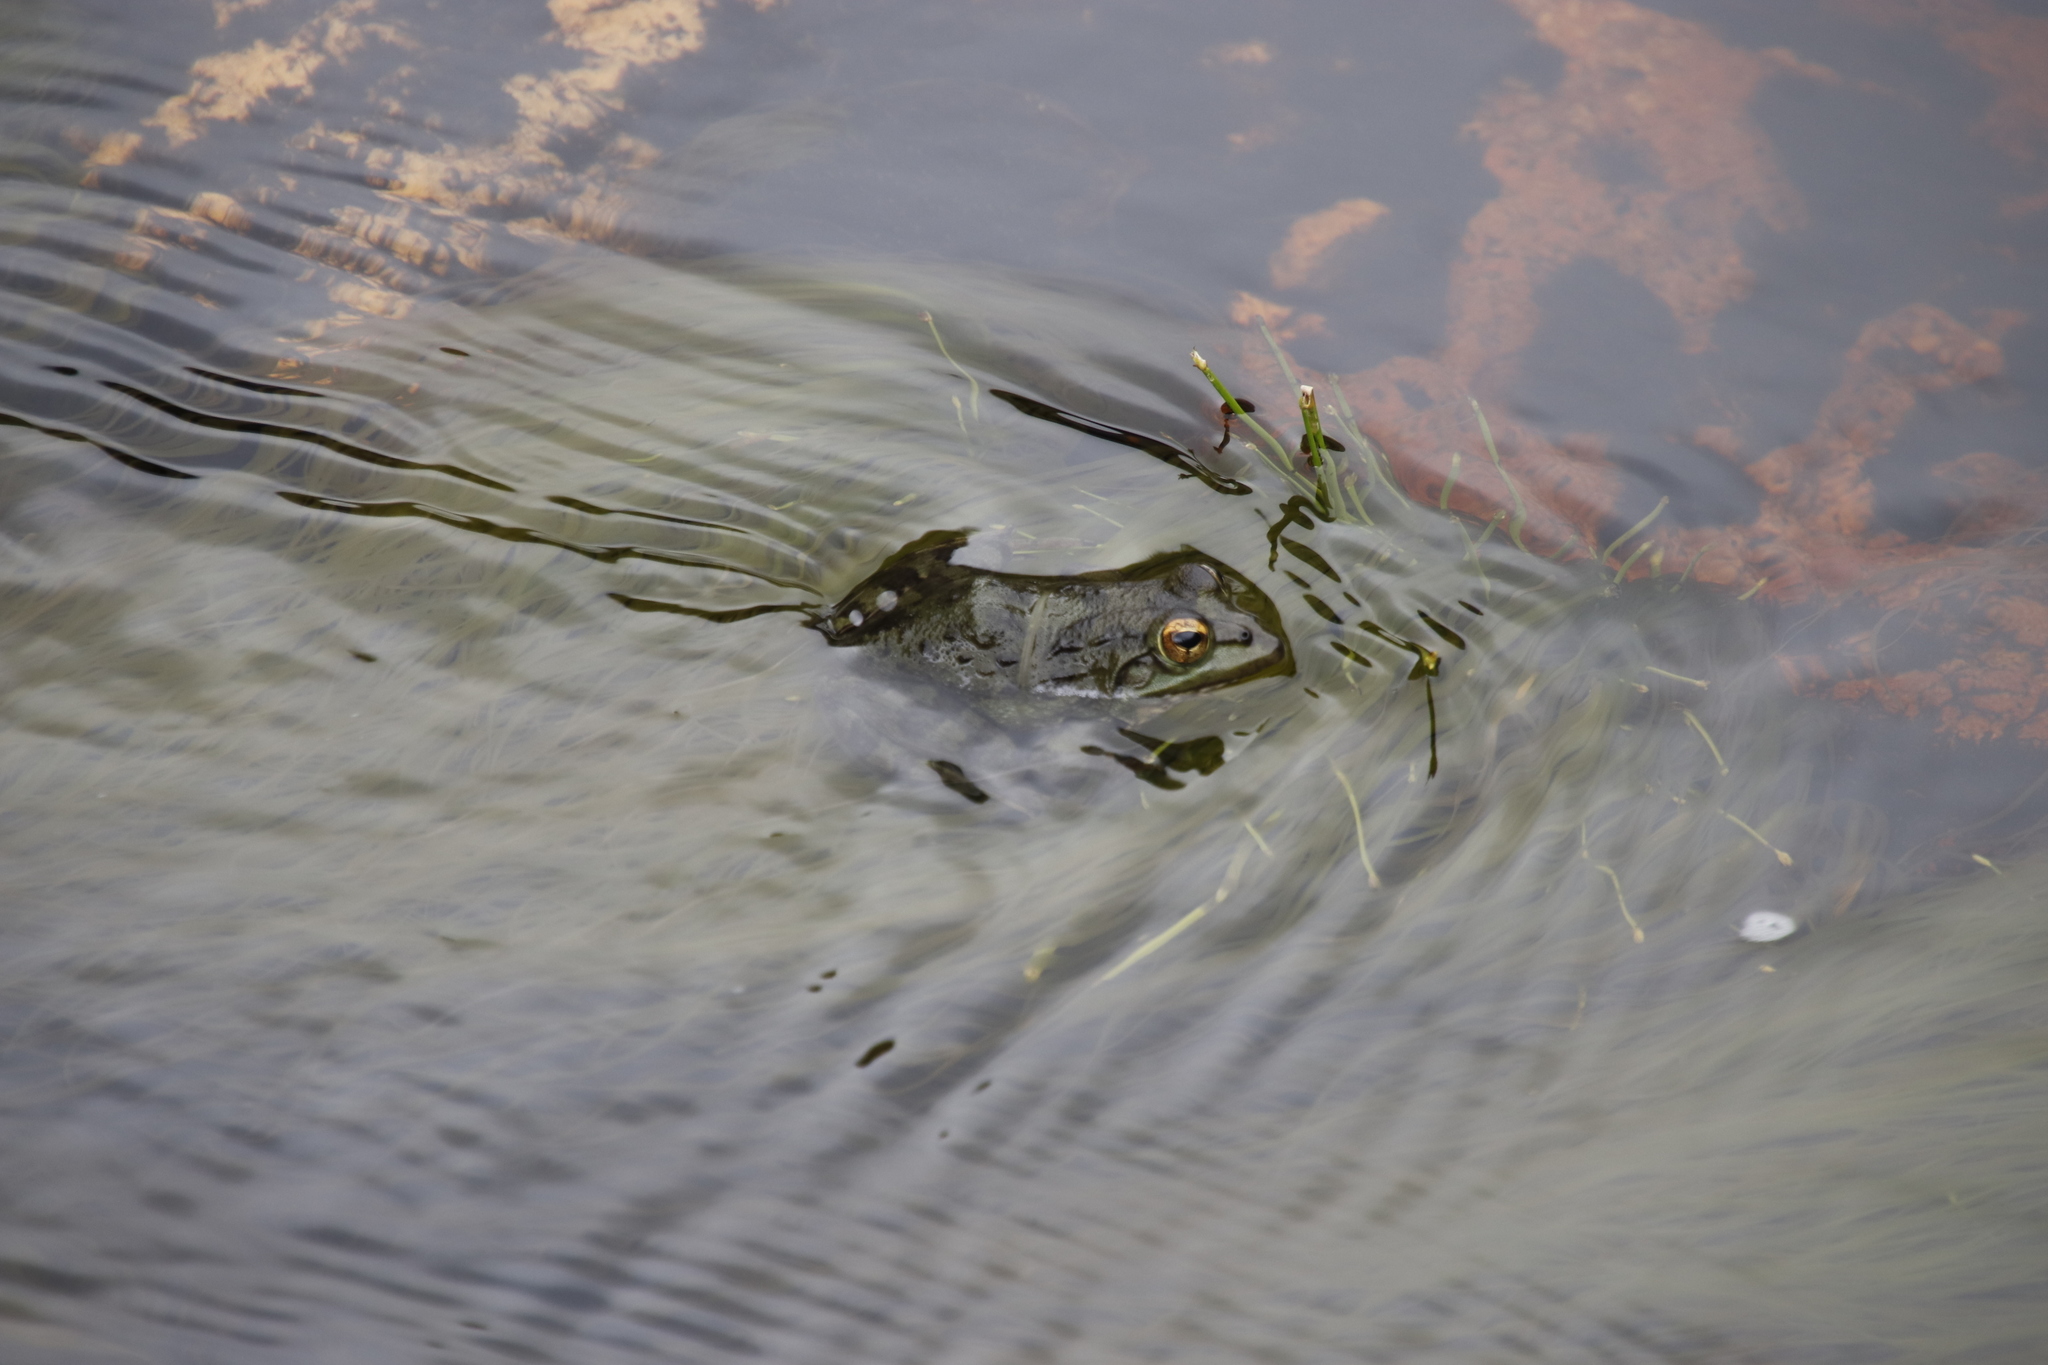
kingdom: Animalia
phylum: Chordata
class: Amphibia
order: Anura
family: Pyxicephalidae
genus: Amietia
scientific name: Amietia fuscigula
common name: Cape rana
